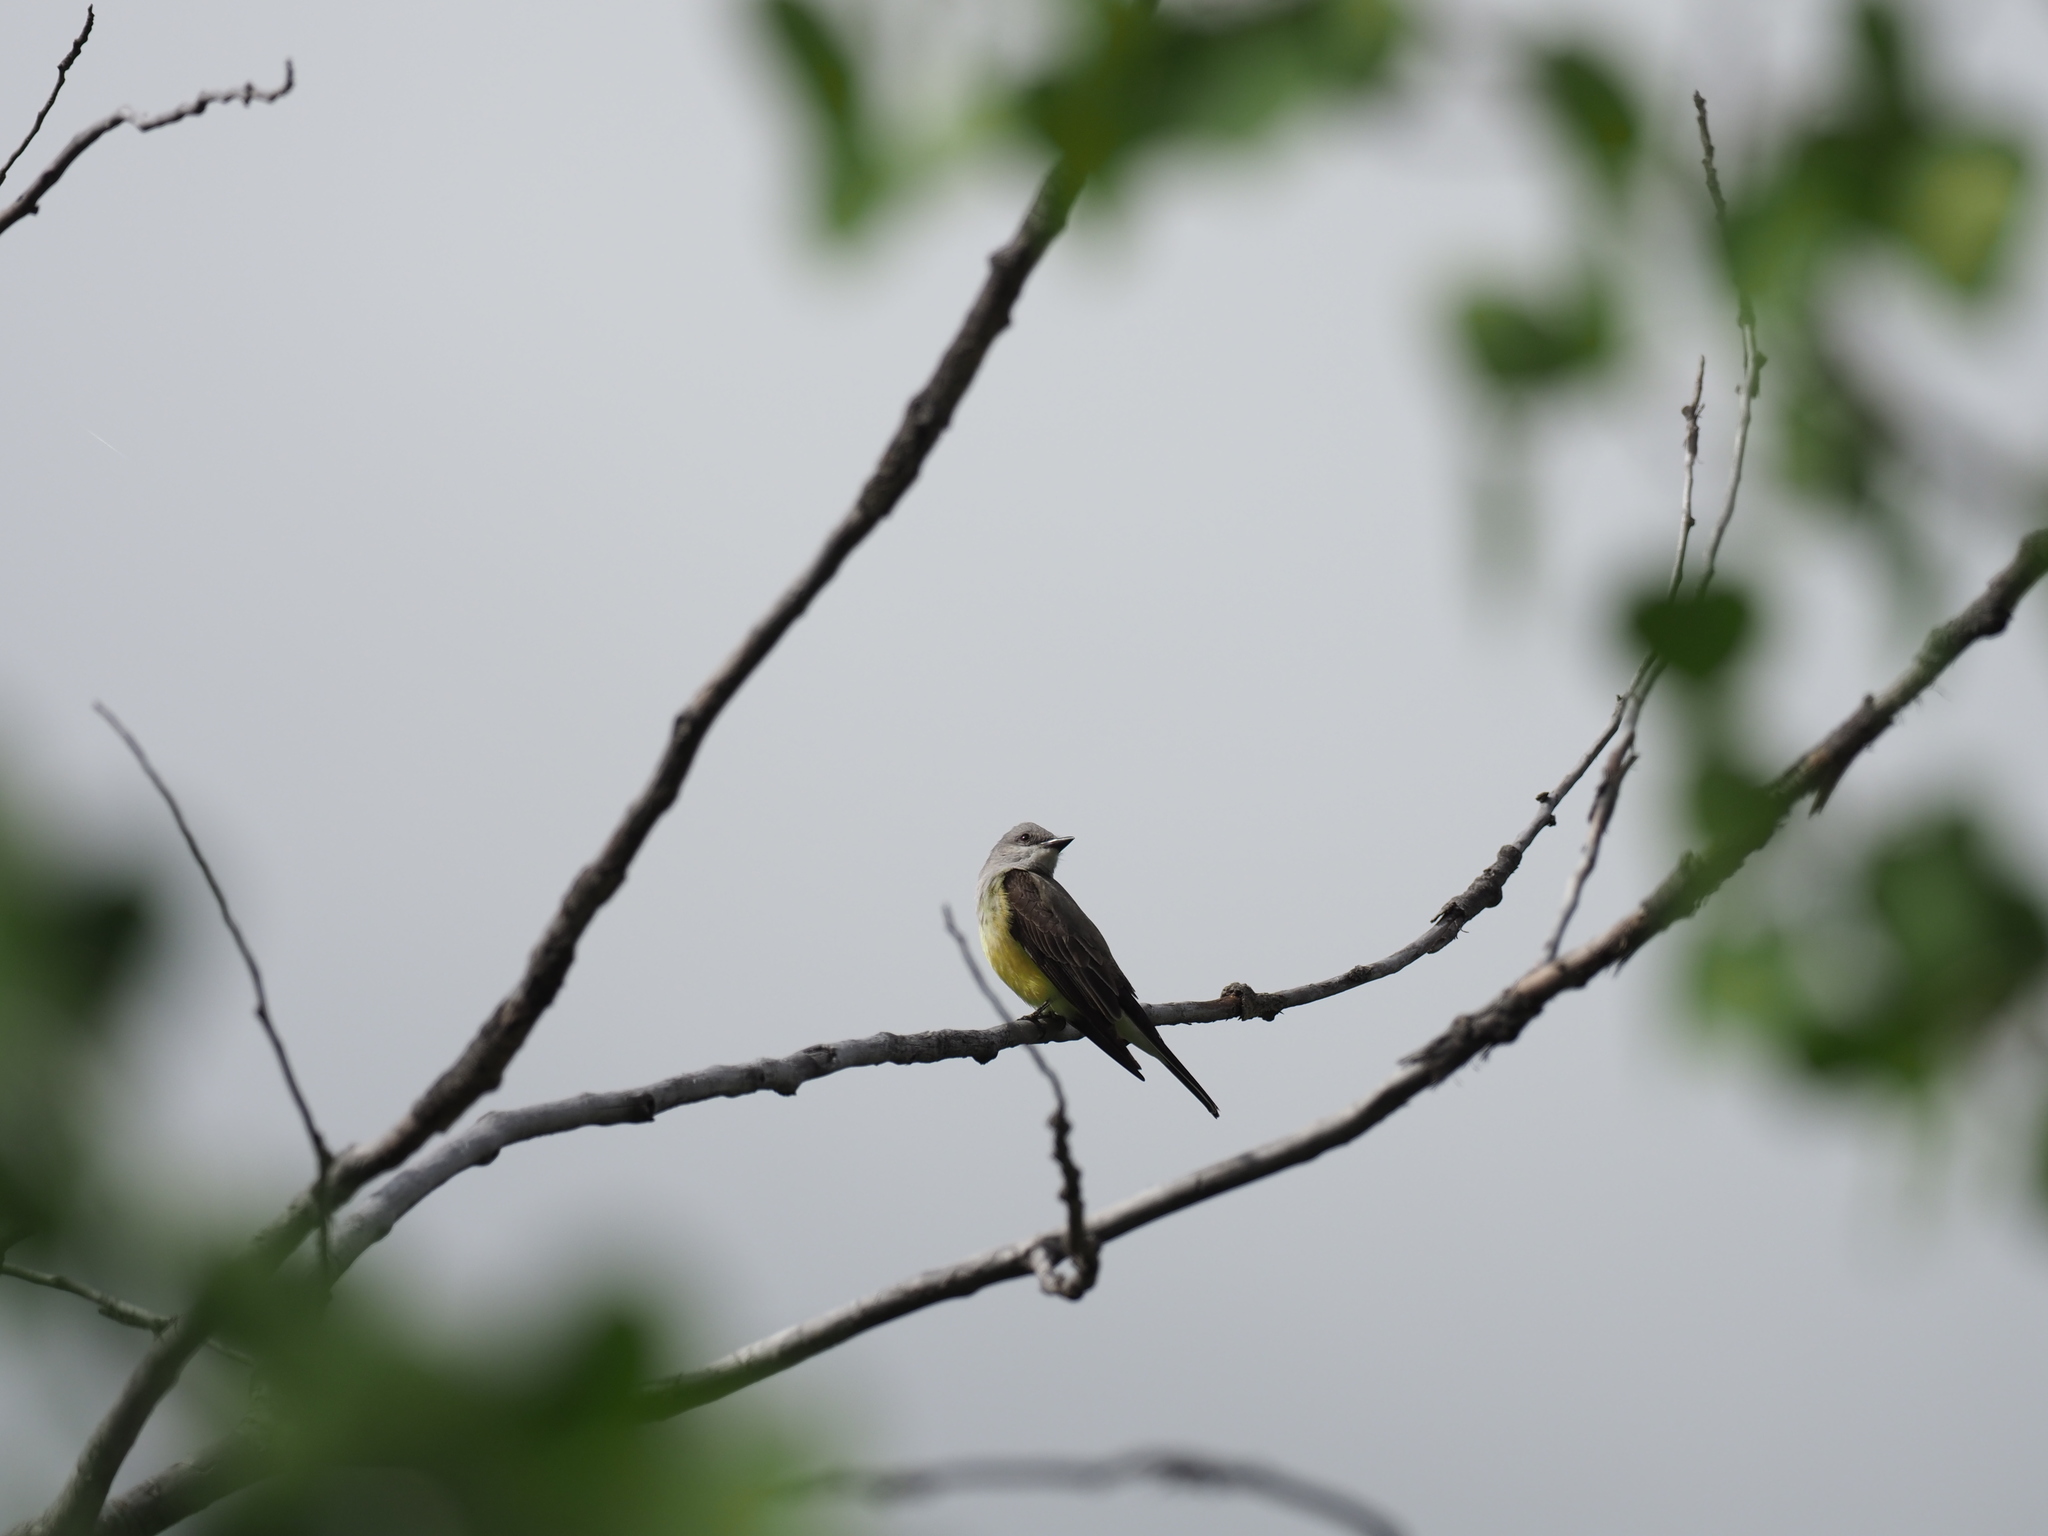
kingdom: Animalia
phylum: Chordata
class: Aves
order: Passeriformes
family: Tyrannidae
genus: Tyrannus
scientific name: Tyrannus verticalis
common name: Western kingbird
